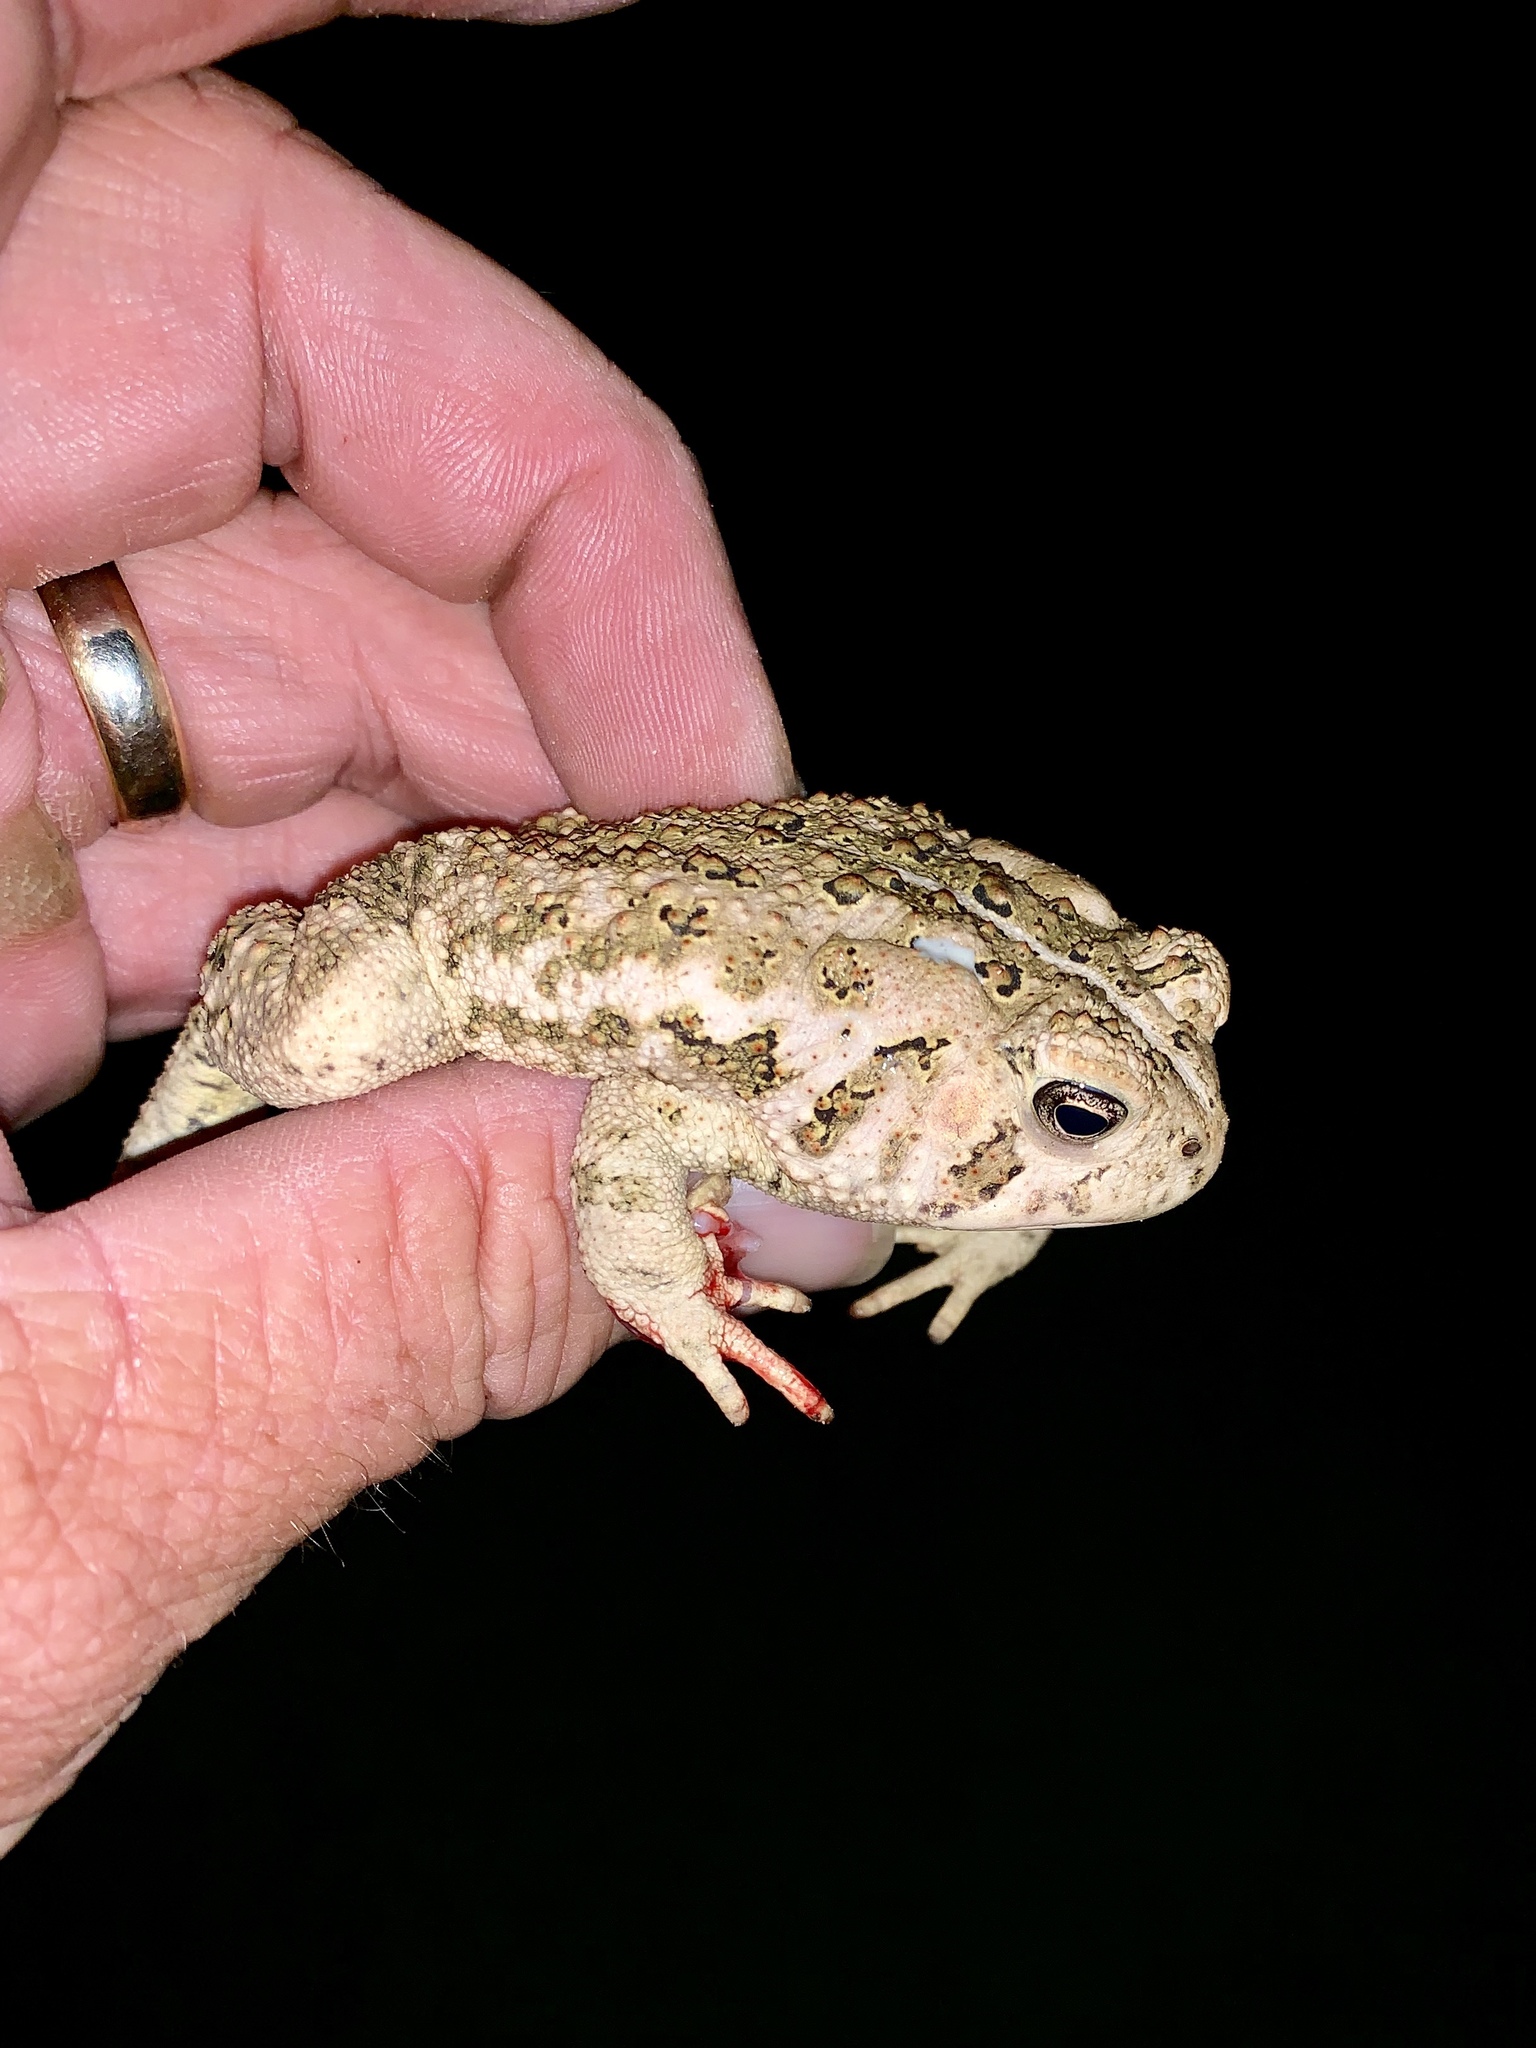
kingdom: Animalia
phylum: Chordata
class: Amphibia
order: Anura
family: Bufonidae
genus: Anaxyrus
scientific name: Anaxyrus woodhousii
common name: Woodhouse's toad
